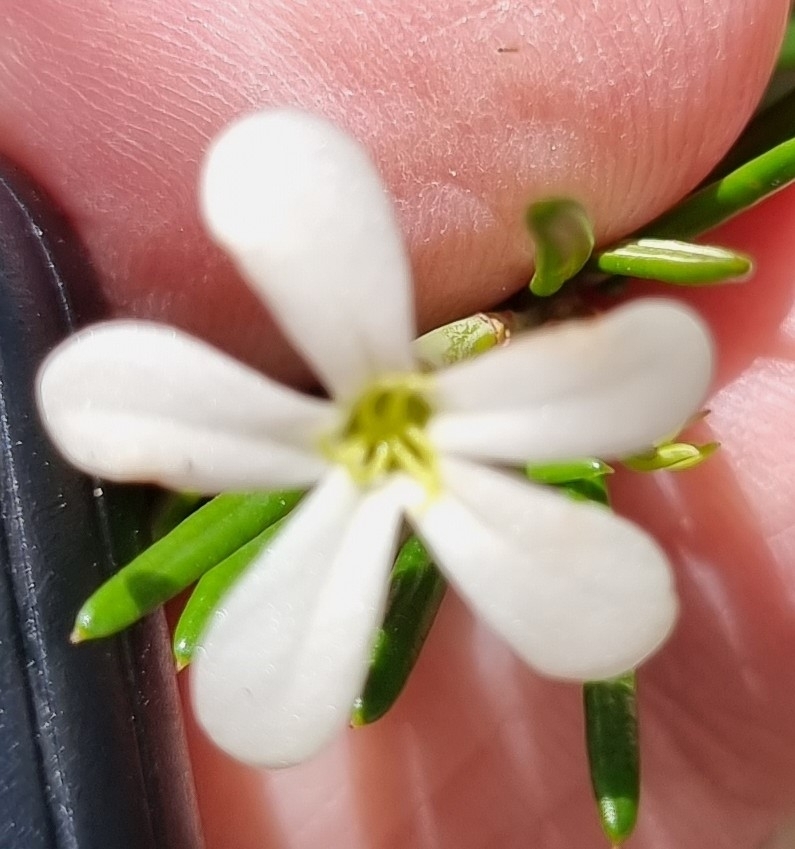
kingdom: Plantae
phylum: Tracheophyta
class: Magnoliopsida
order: Malpighiales
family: Euphorbiaceae
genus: Ricinocarpos
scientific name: Ricinocarpos pinifolius
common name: Weddingbush
